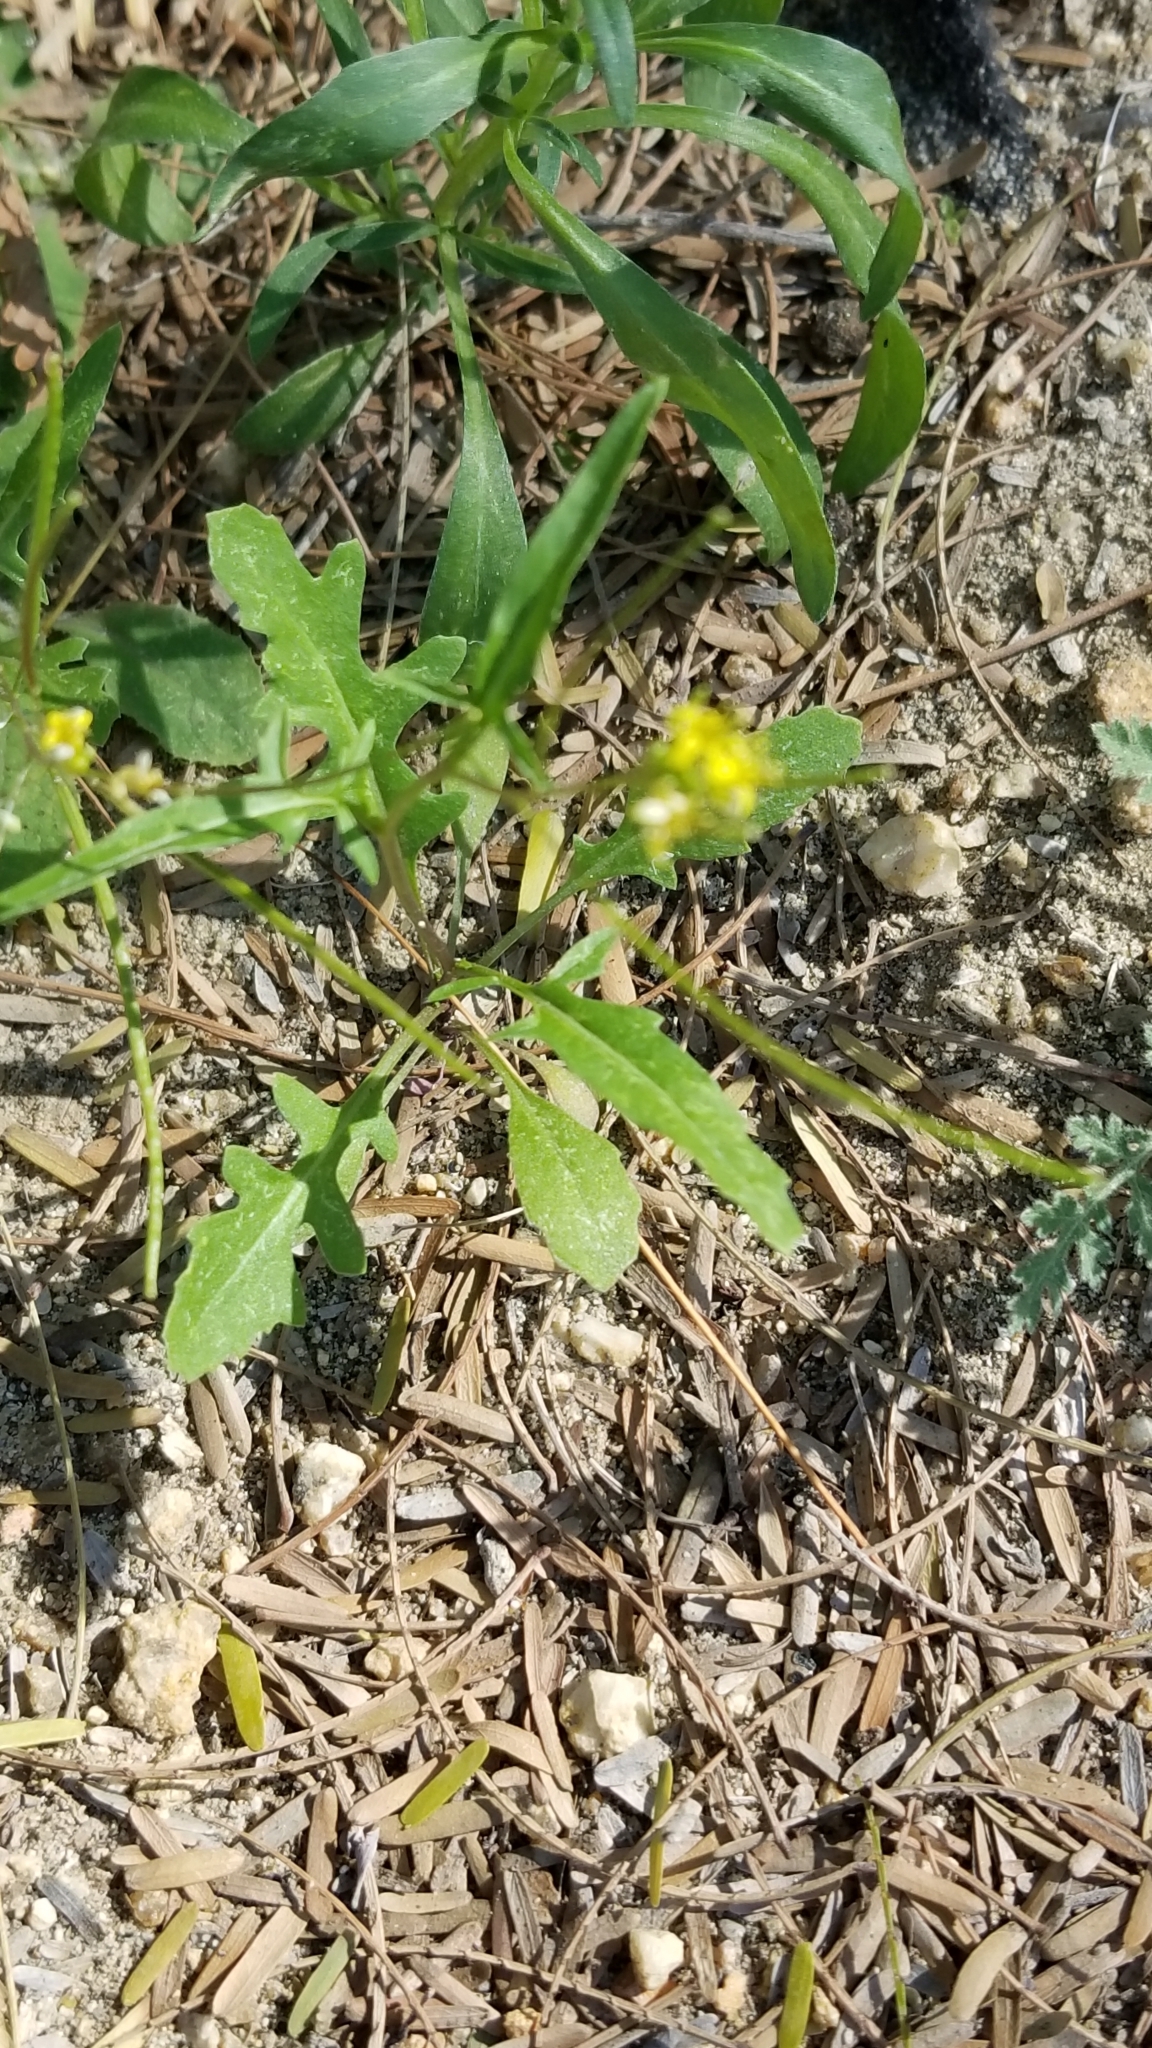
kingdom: Plantae
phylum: Tracheophyta
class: Magnoliopsida
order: Brassicales
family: Brassicaceae
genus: Sisymbrium
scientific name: Sisymbrium irio
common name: London rocket
